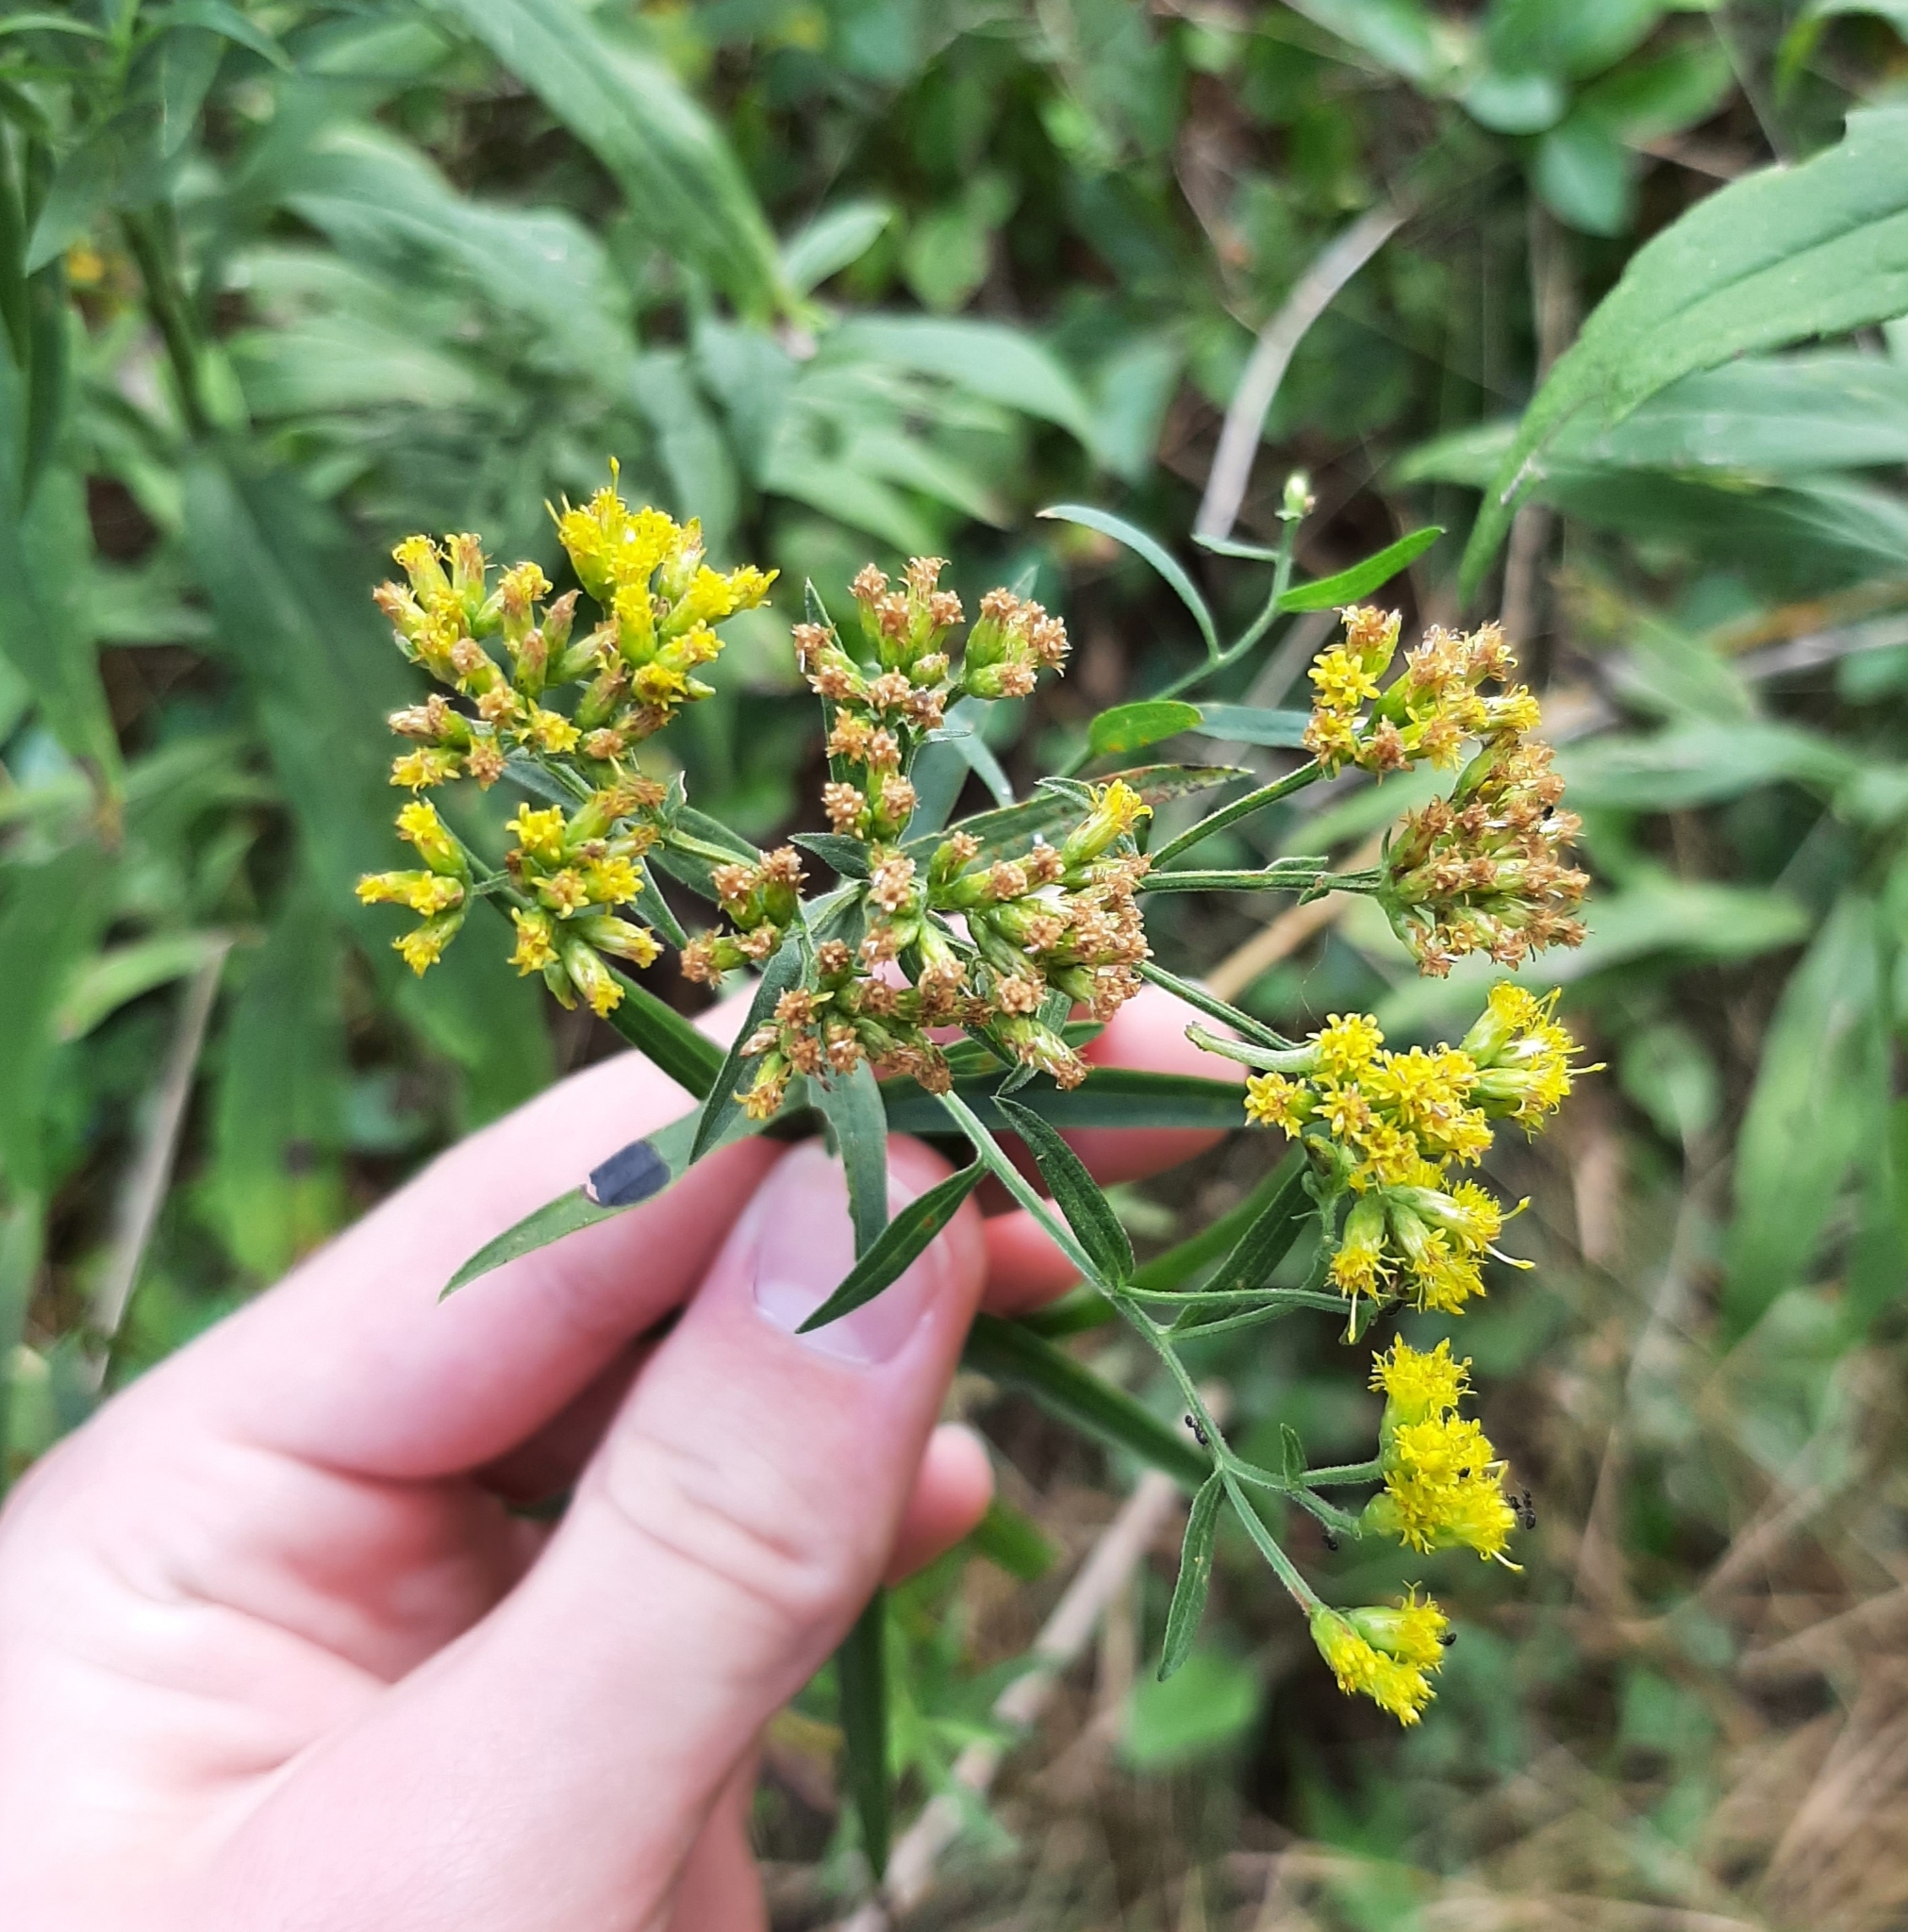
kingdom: Animalia
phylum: Arthropoda
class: Insecta
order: Diptera
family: Cecidomyiidae
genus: Asteromyia
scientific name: Asteromyia euthamiae
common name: Euthamia leaf gall midge
